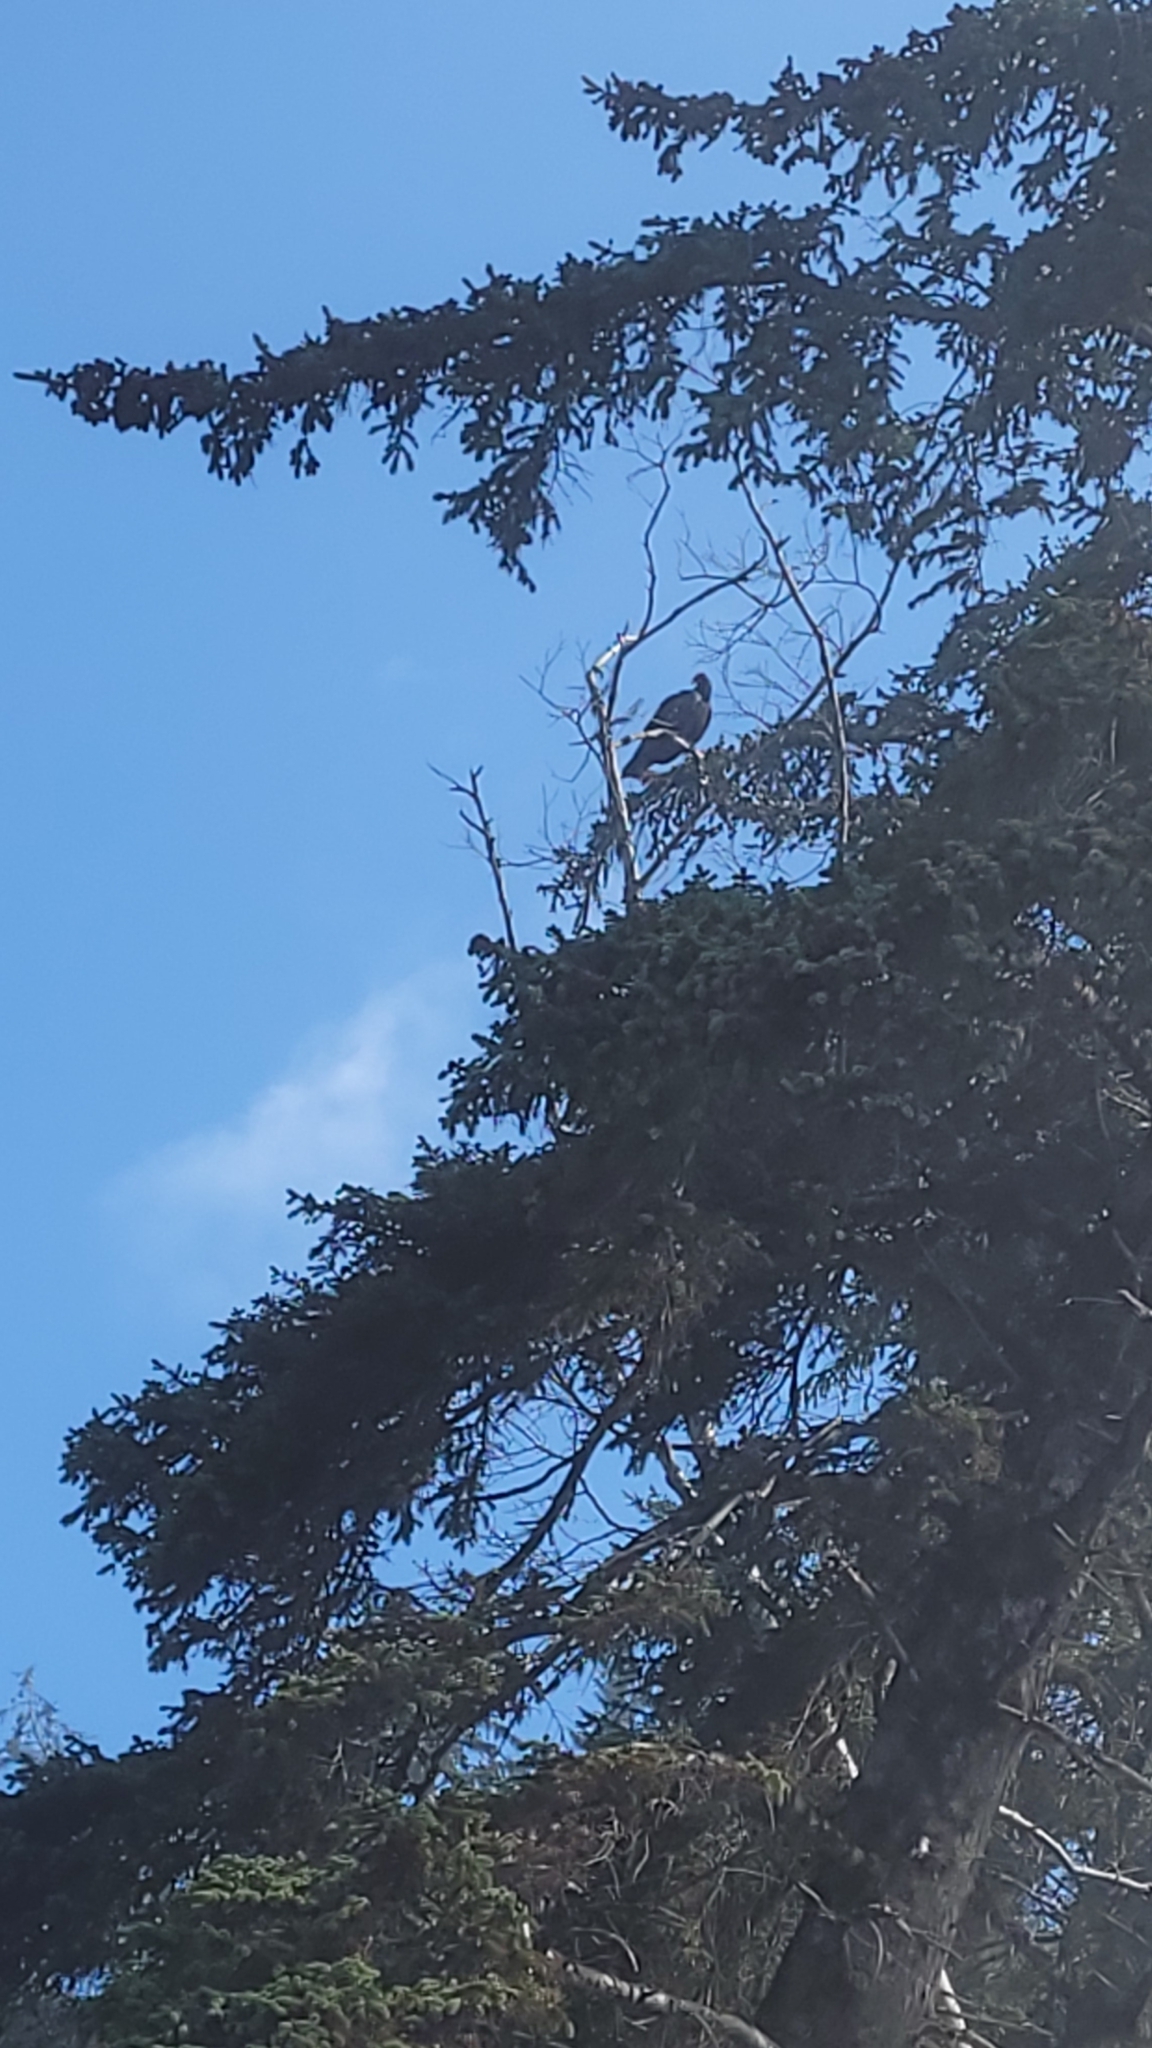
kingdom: Animalia
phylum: Chordata
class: Aves
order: Accipitriformes
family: Cathartidae
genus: Cathartes
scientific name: Cathartes aura
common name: Turkey vulture
